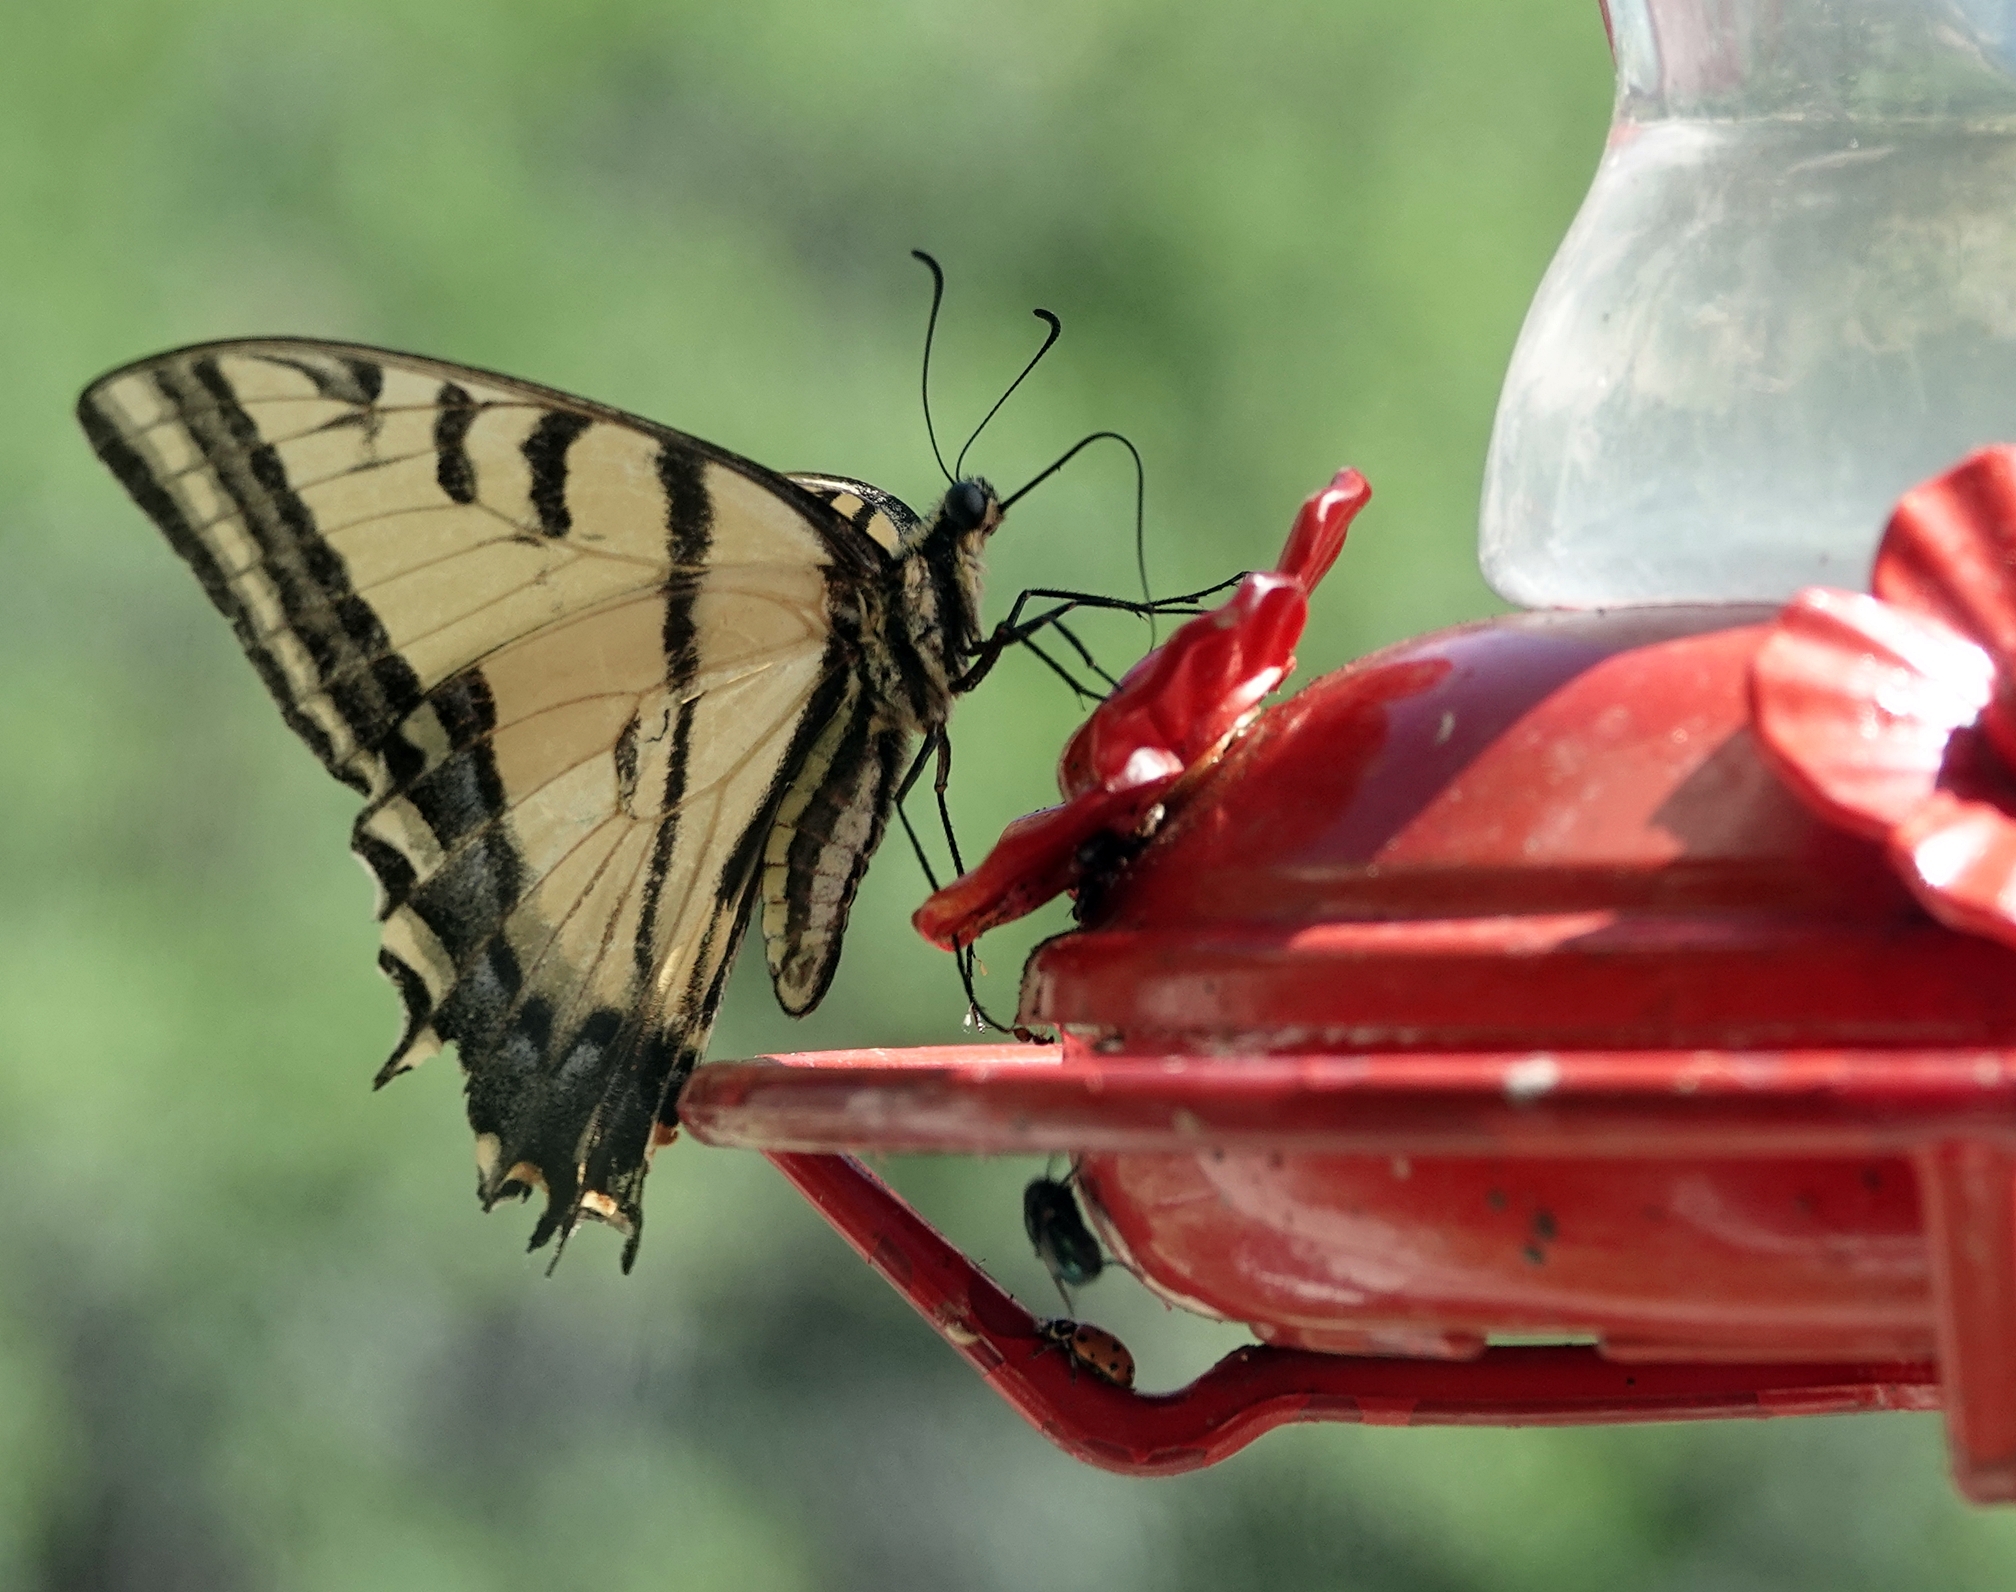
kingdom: Animalia
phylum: Arthropoda
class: Insecta
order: Lepidoptera
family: Papilionidae
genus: Papilio
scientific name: Papilio multicaudata
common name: Two-tailed tiger swallowtail
